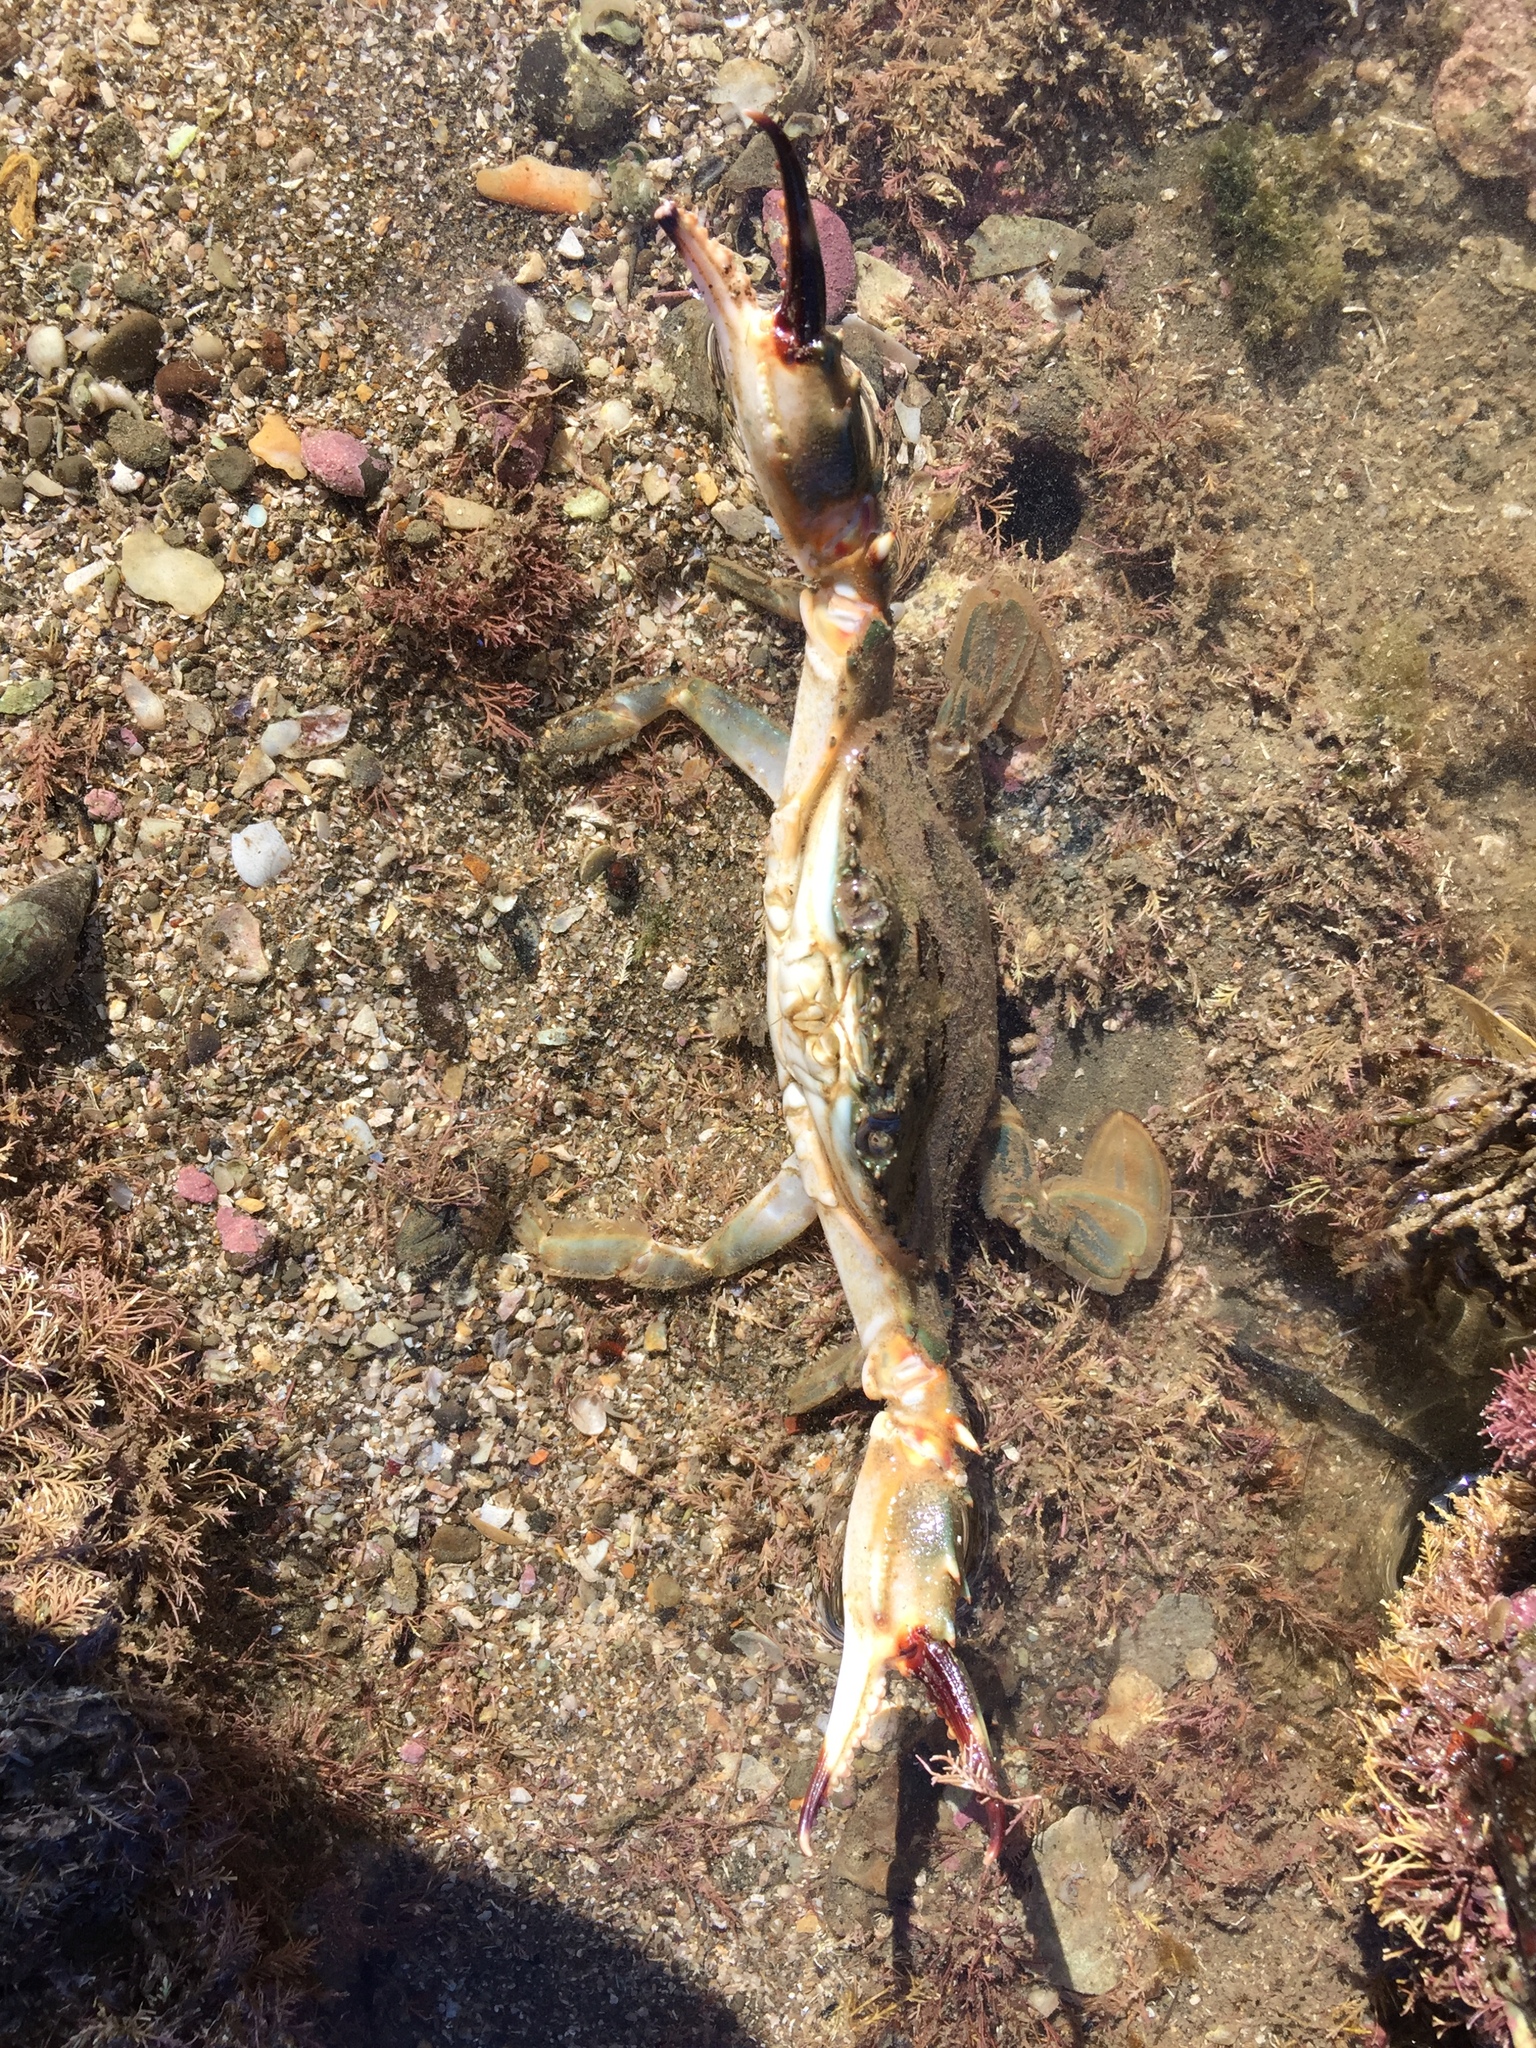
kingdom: Animalia
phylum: Arthropoda
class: Malacostraca
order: Decapoda
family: Portunidae
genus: Charybdis
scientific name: Charybdis japonica
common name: Asian paddle crab
